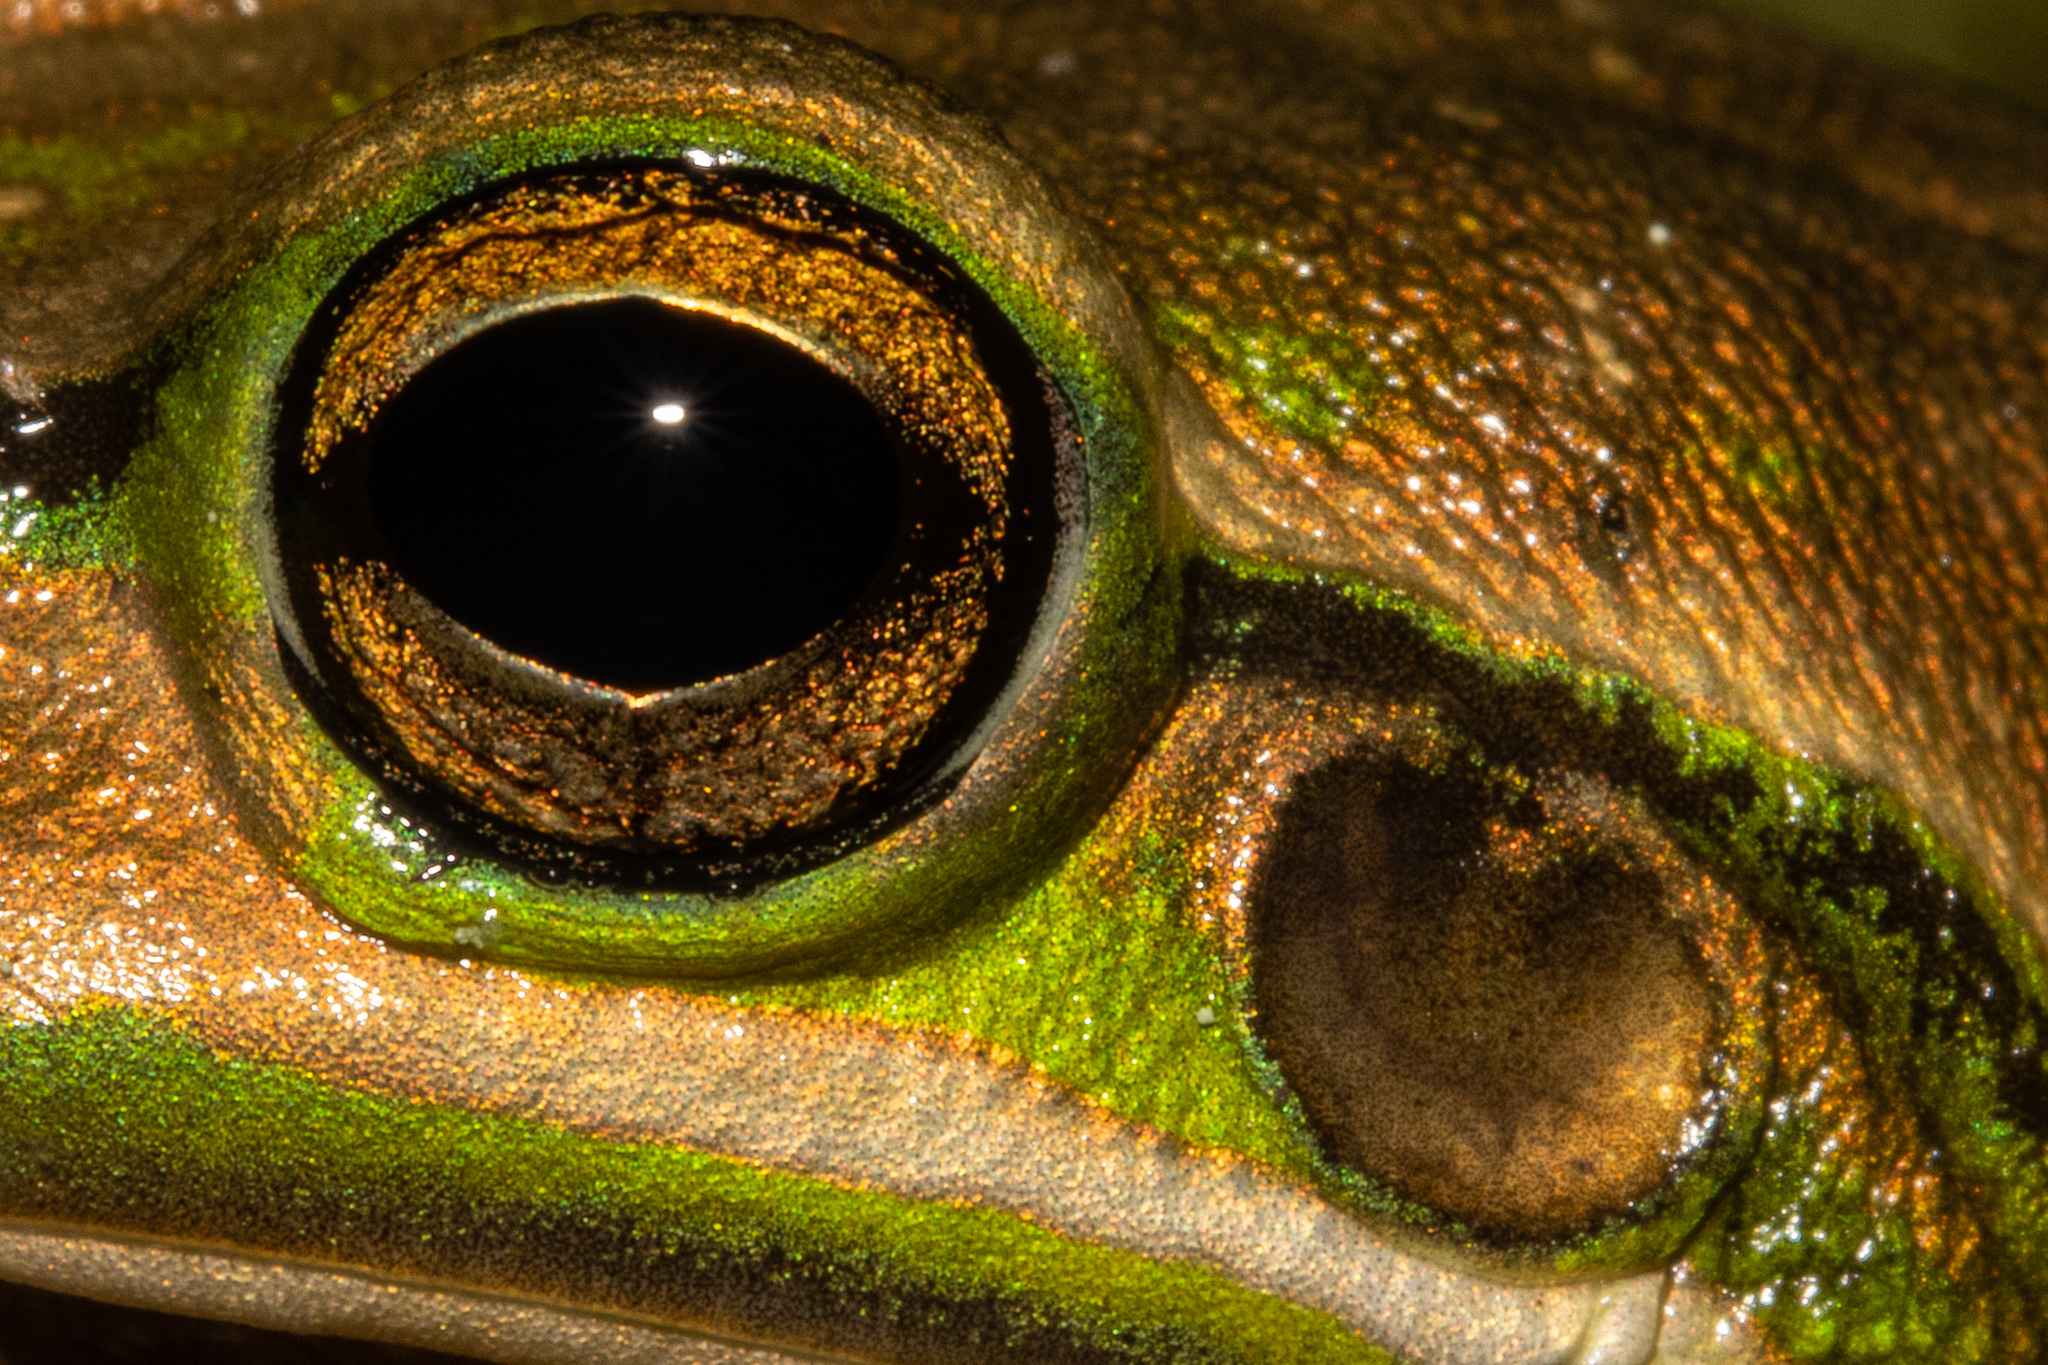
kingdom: Animalia
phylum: Chordata
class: Amphibia
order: Anura
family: Pelodryadidae
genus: Ranoidea
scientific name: Ranoidea aurea
